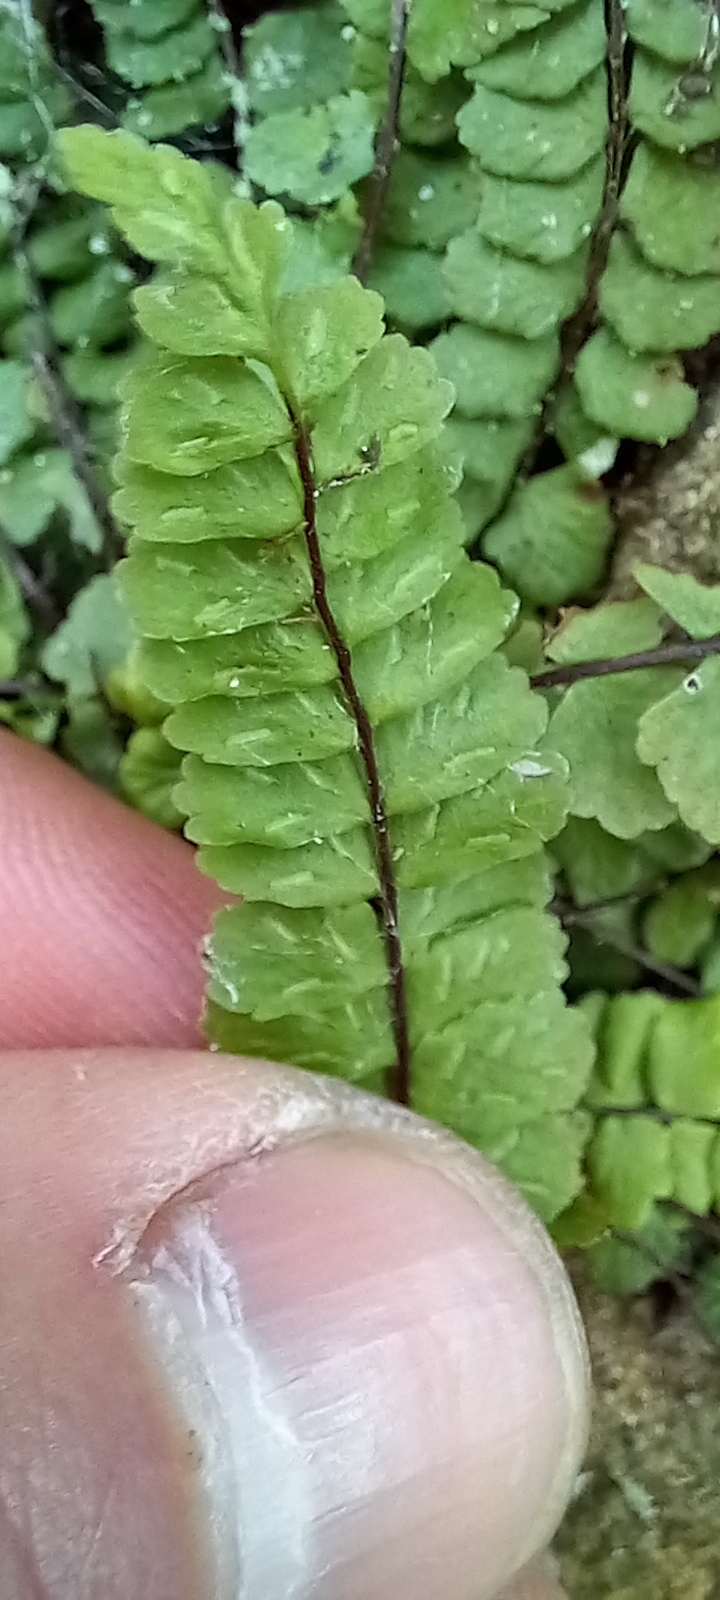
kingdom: Plantae
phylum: Tracheophyta
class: Polypodiopsida
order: Polypodiales
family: Aspleniaceae
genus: Asplenium
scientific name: Asplenium trichomanes
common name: Maidenhair spleenwort
